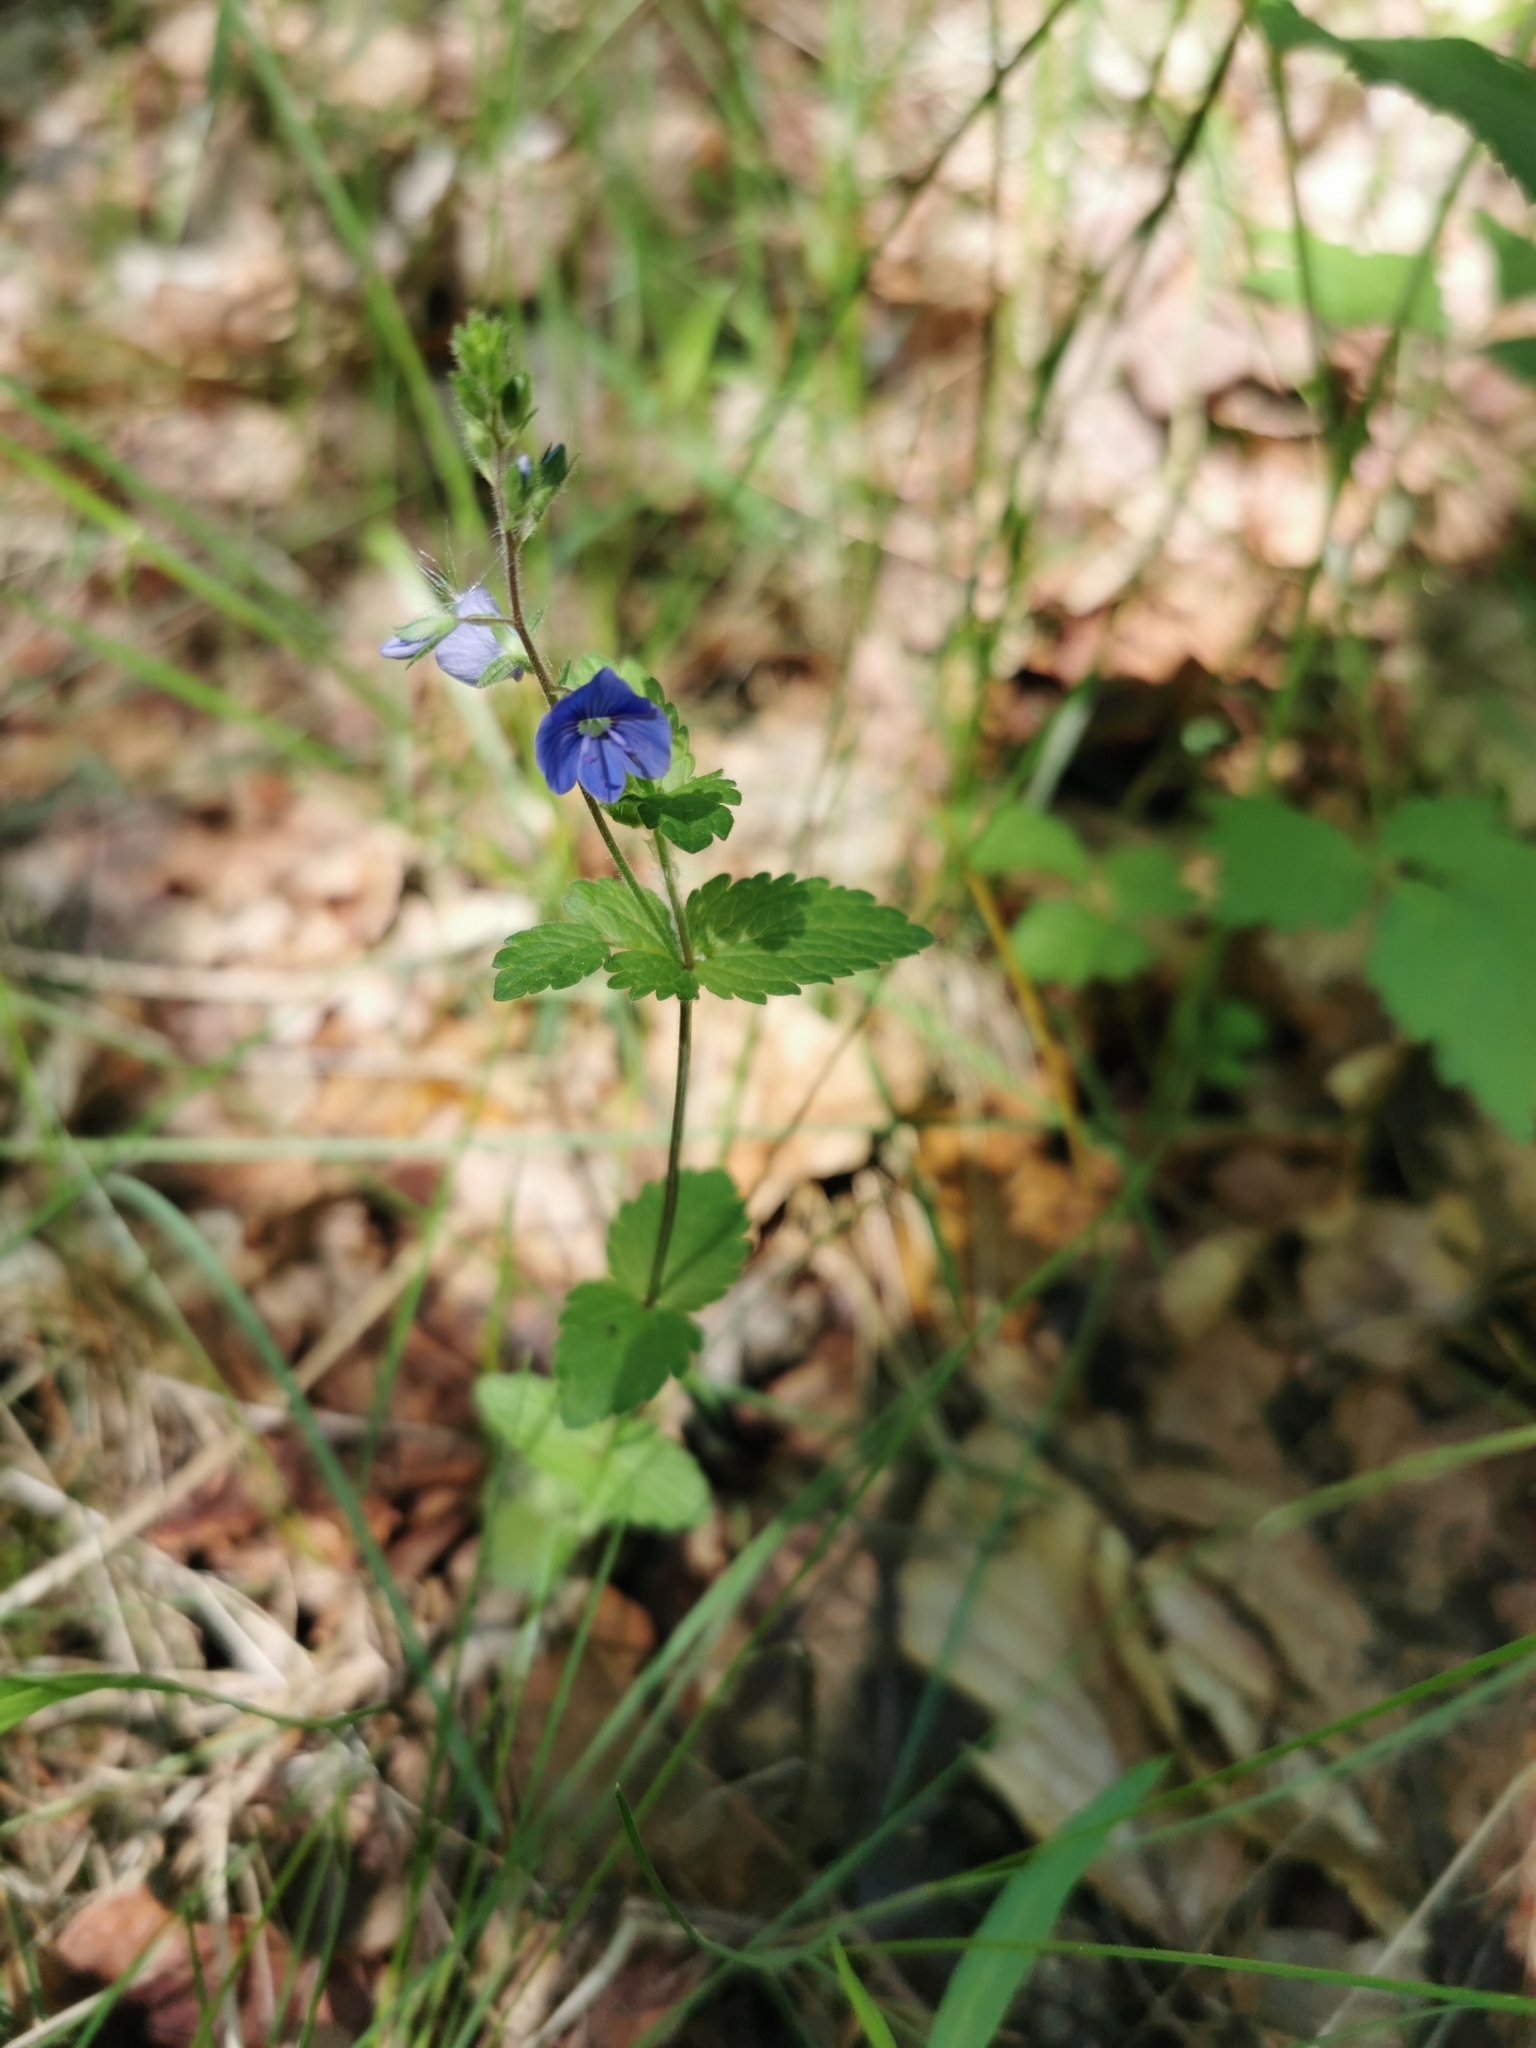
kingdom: Plantae
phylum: Tracheophyta
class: Magnoliopsida
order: Lamiales
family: Plantaginaceae
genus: Veronica
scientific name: Veronica chamaedrys
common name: Germander speedwell
